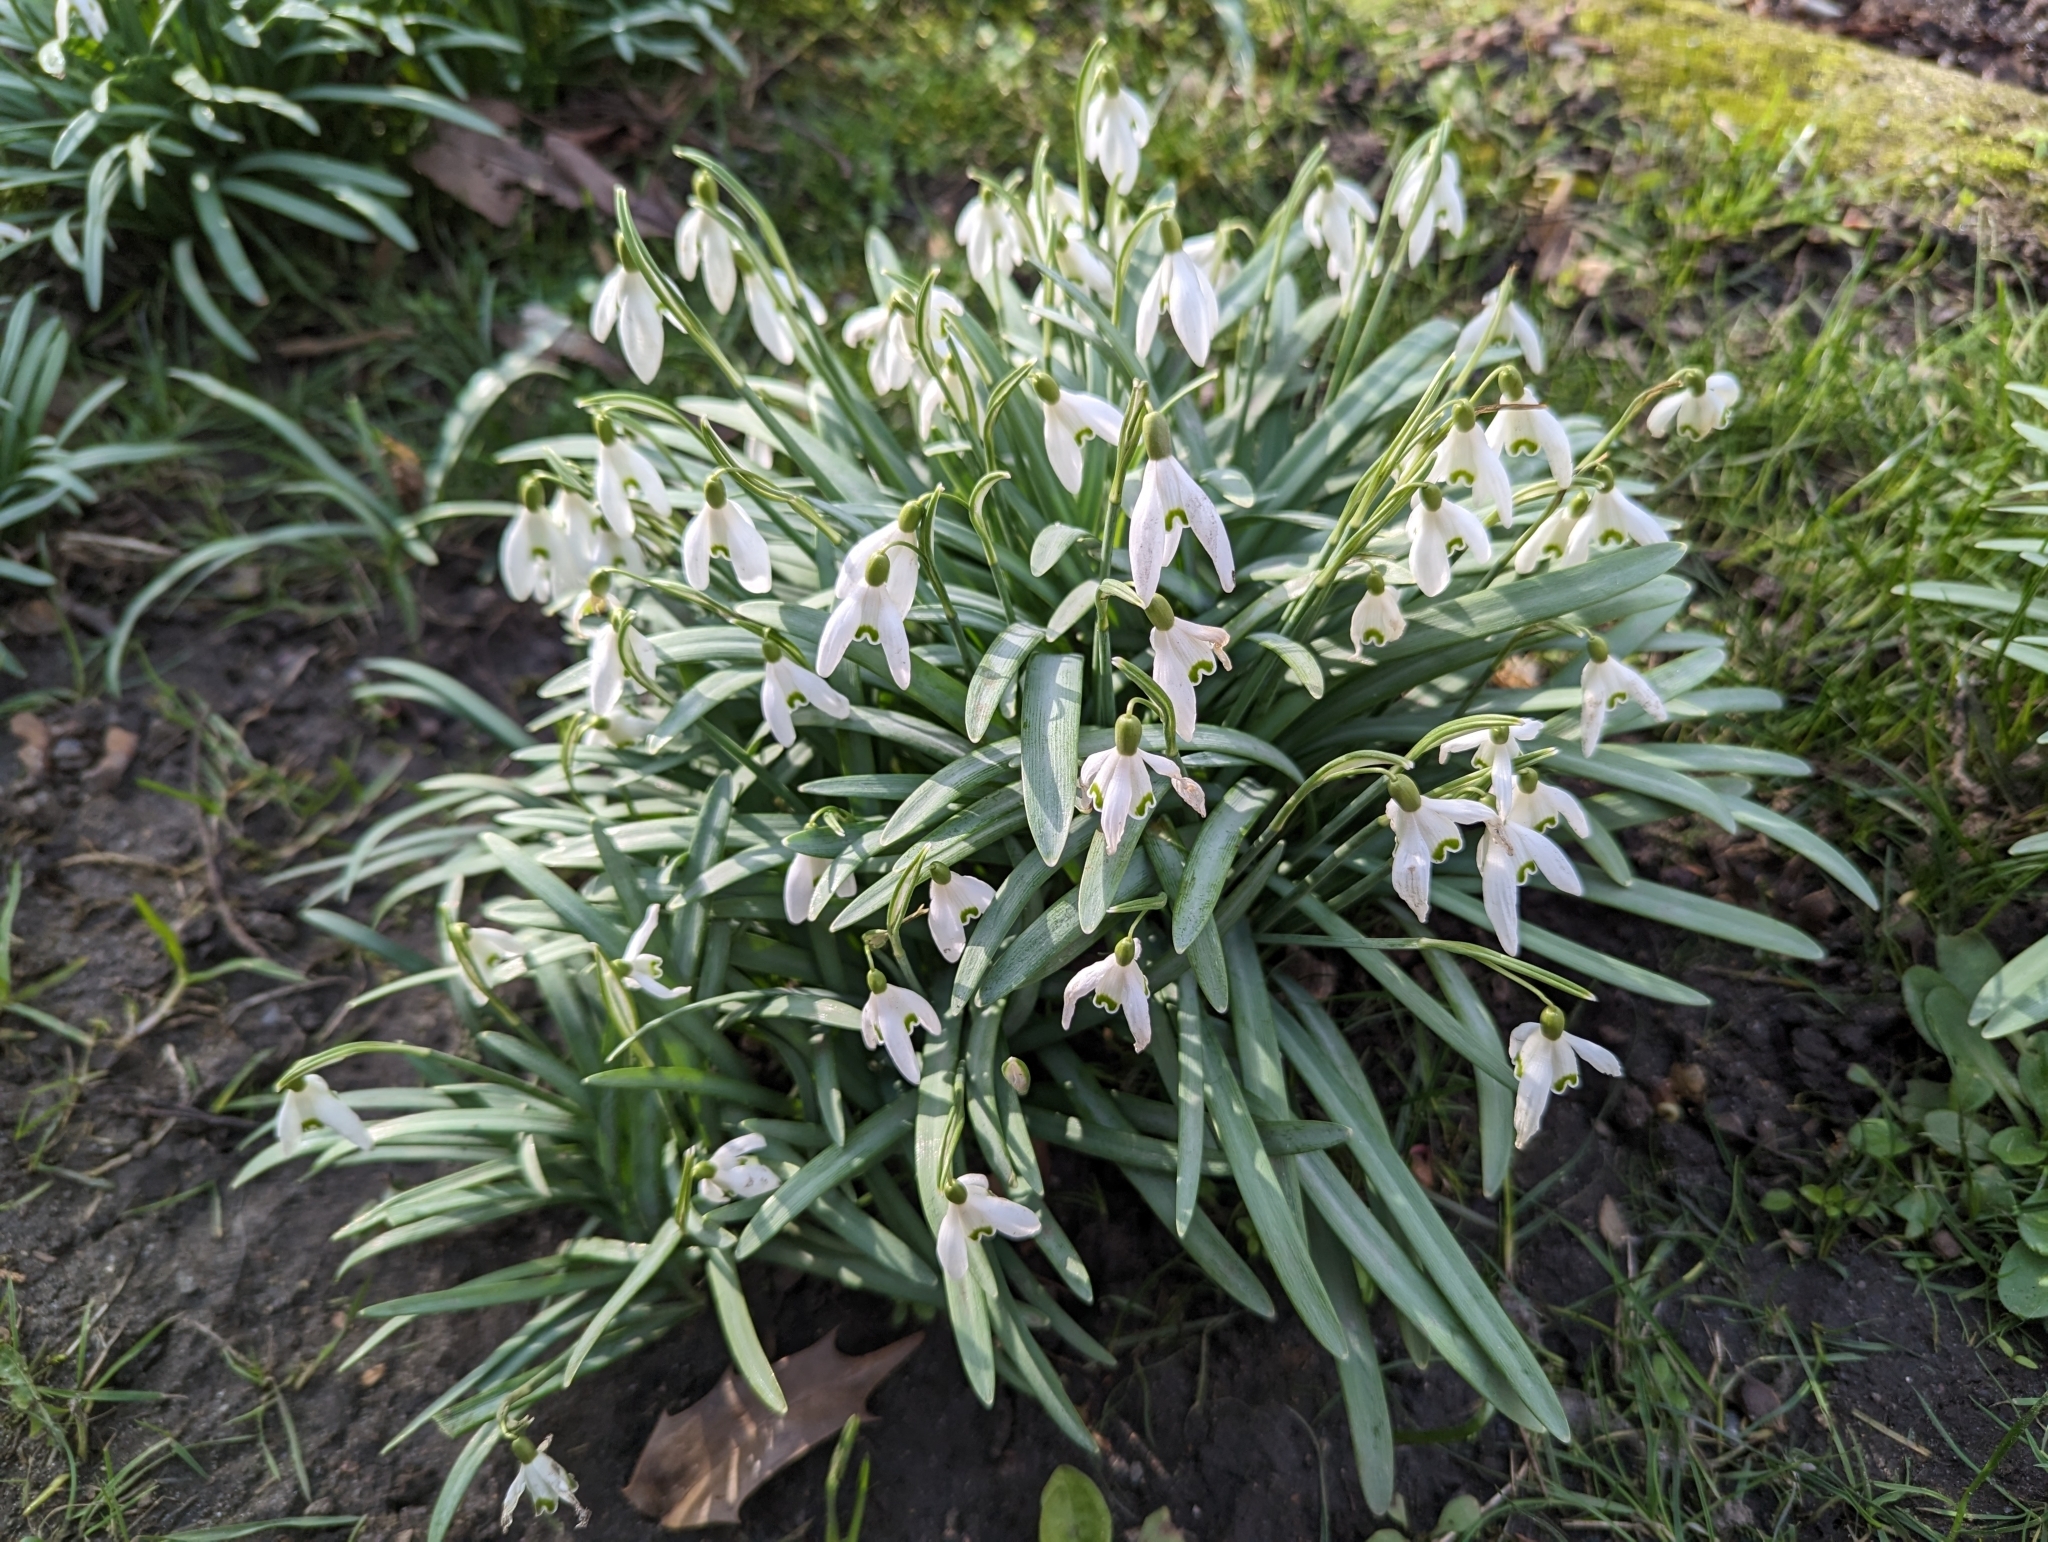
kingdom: Plantae
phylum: Tracheophyta
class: Liliopsida
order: Asparagales
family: Amaryllidaceae
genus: Galanthus
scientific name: Galanthus nivalis
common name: Snowdrop
